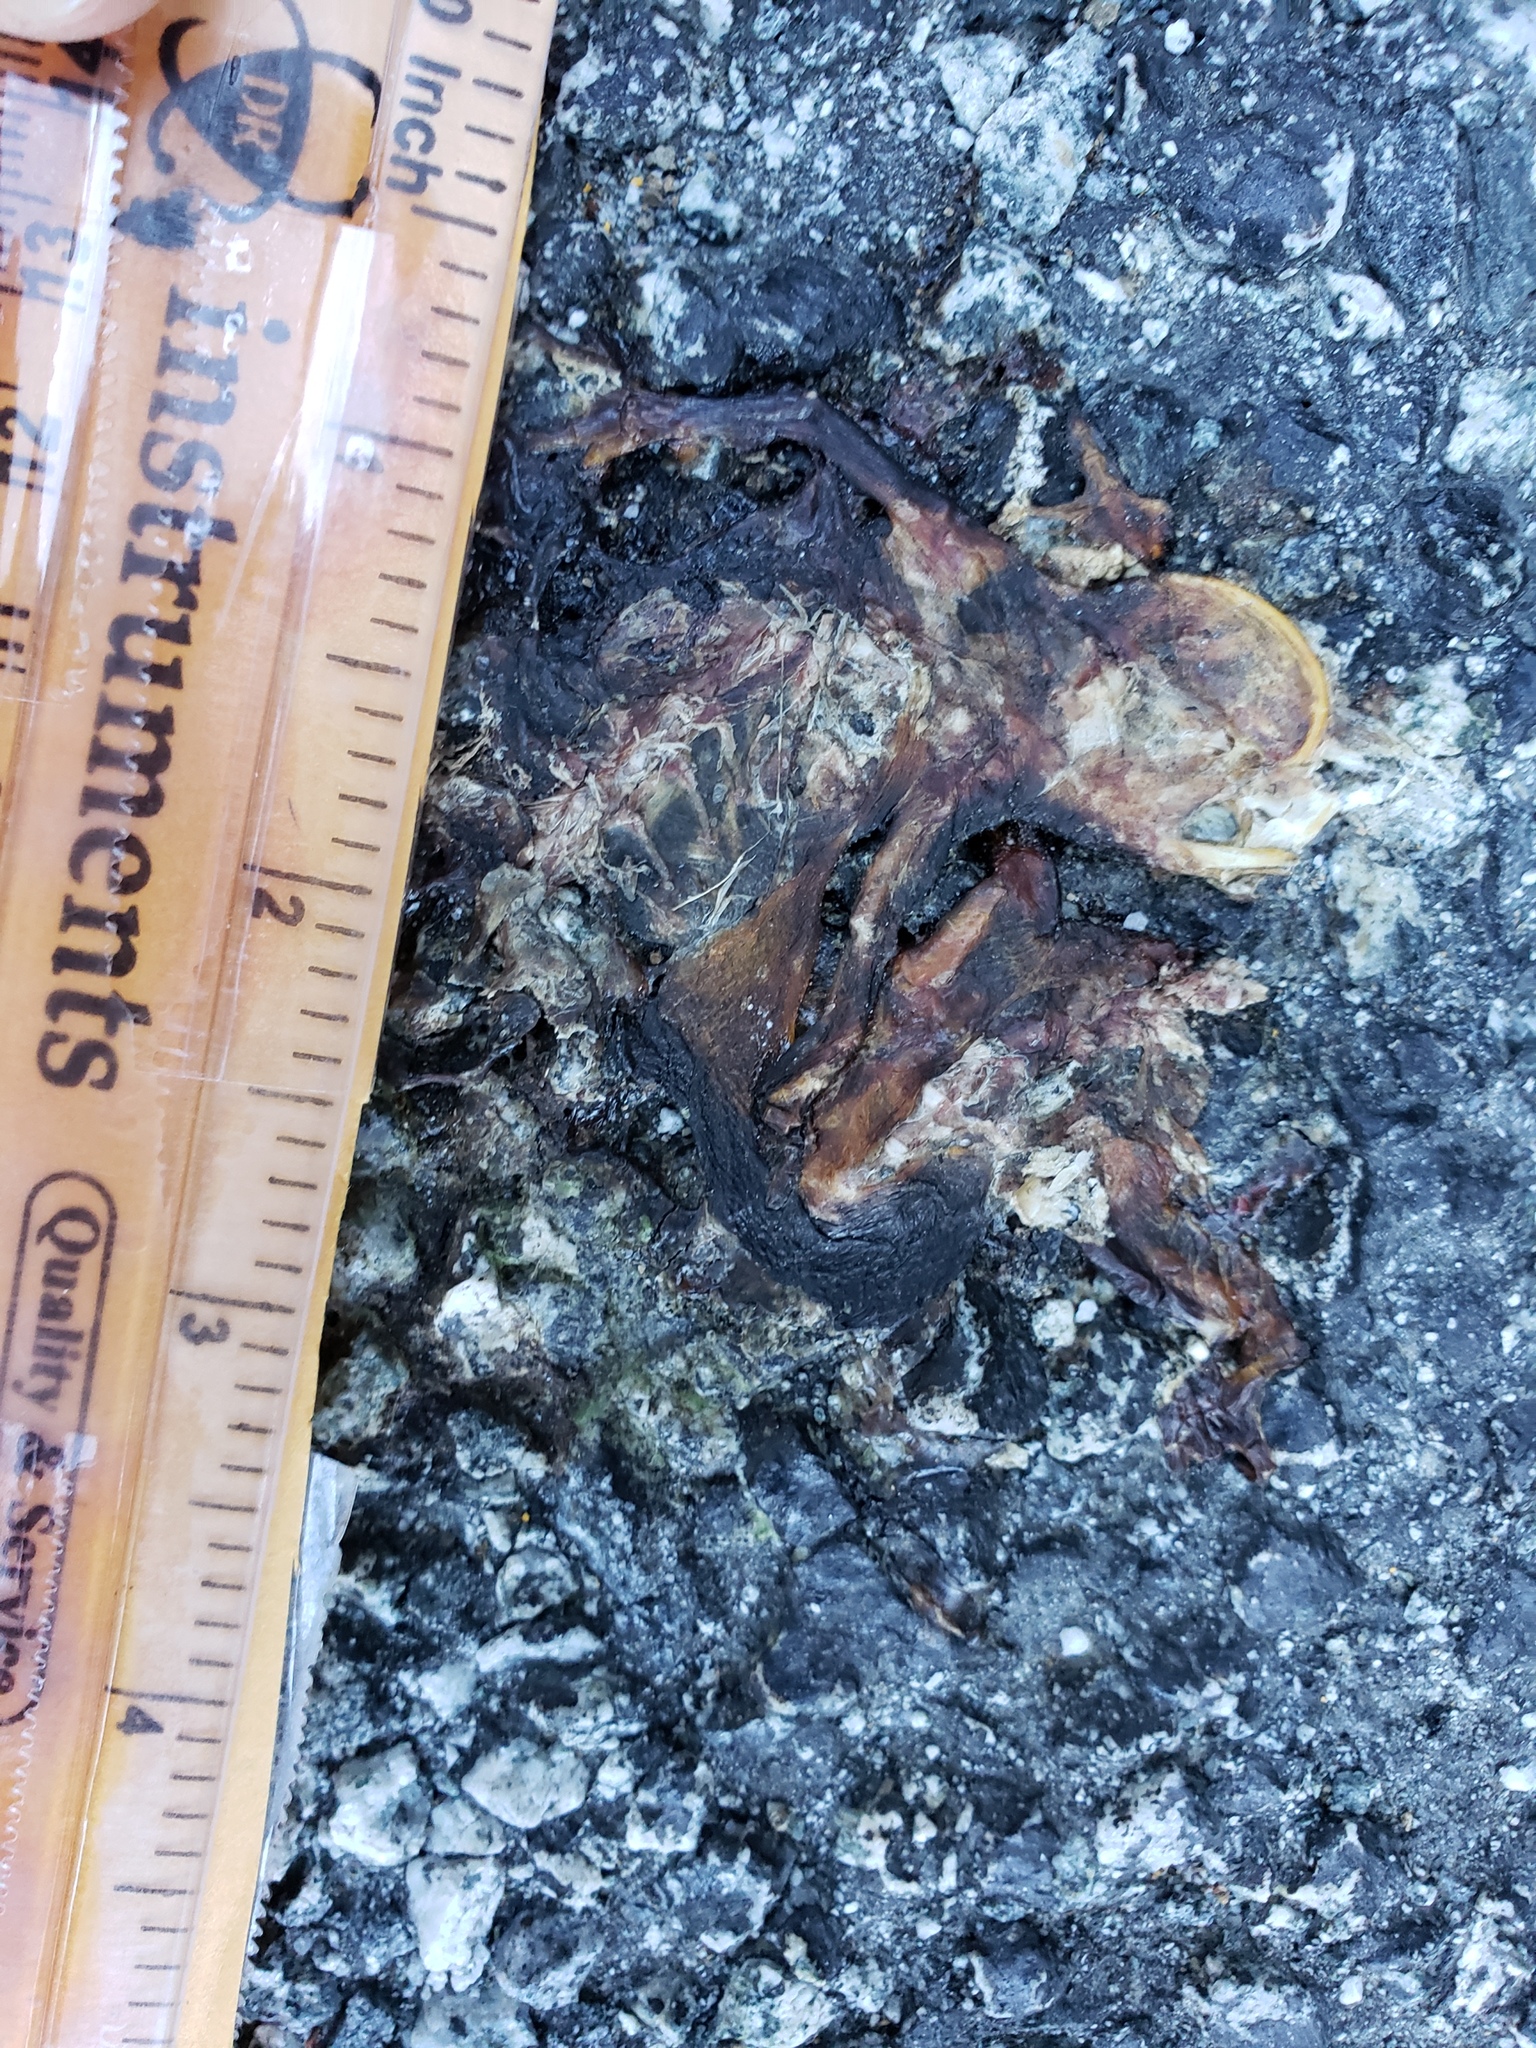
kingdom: Animalia
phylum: Chordata
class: Amphibia
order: Caudata
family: Salamandridae
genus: Taricha
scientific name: Taricha
